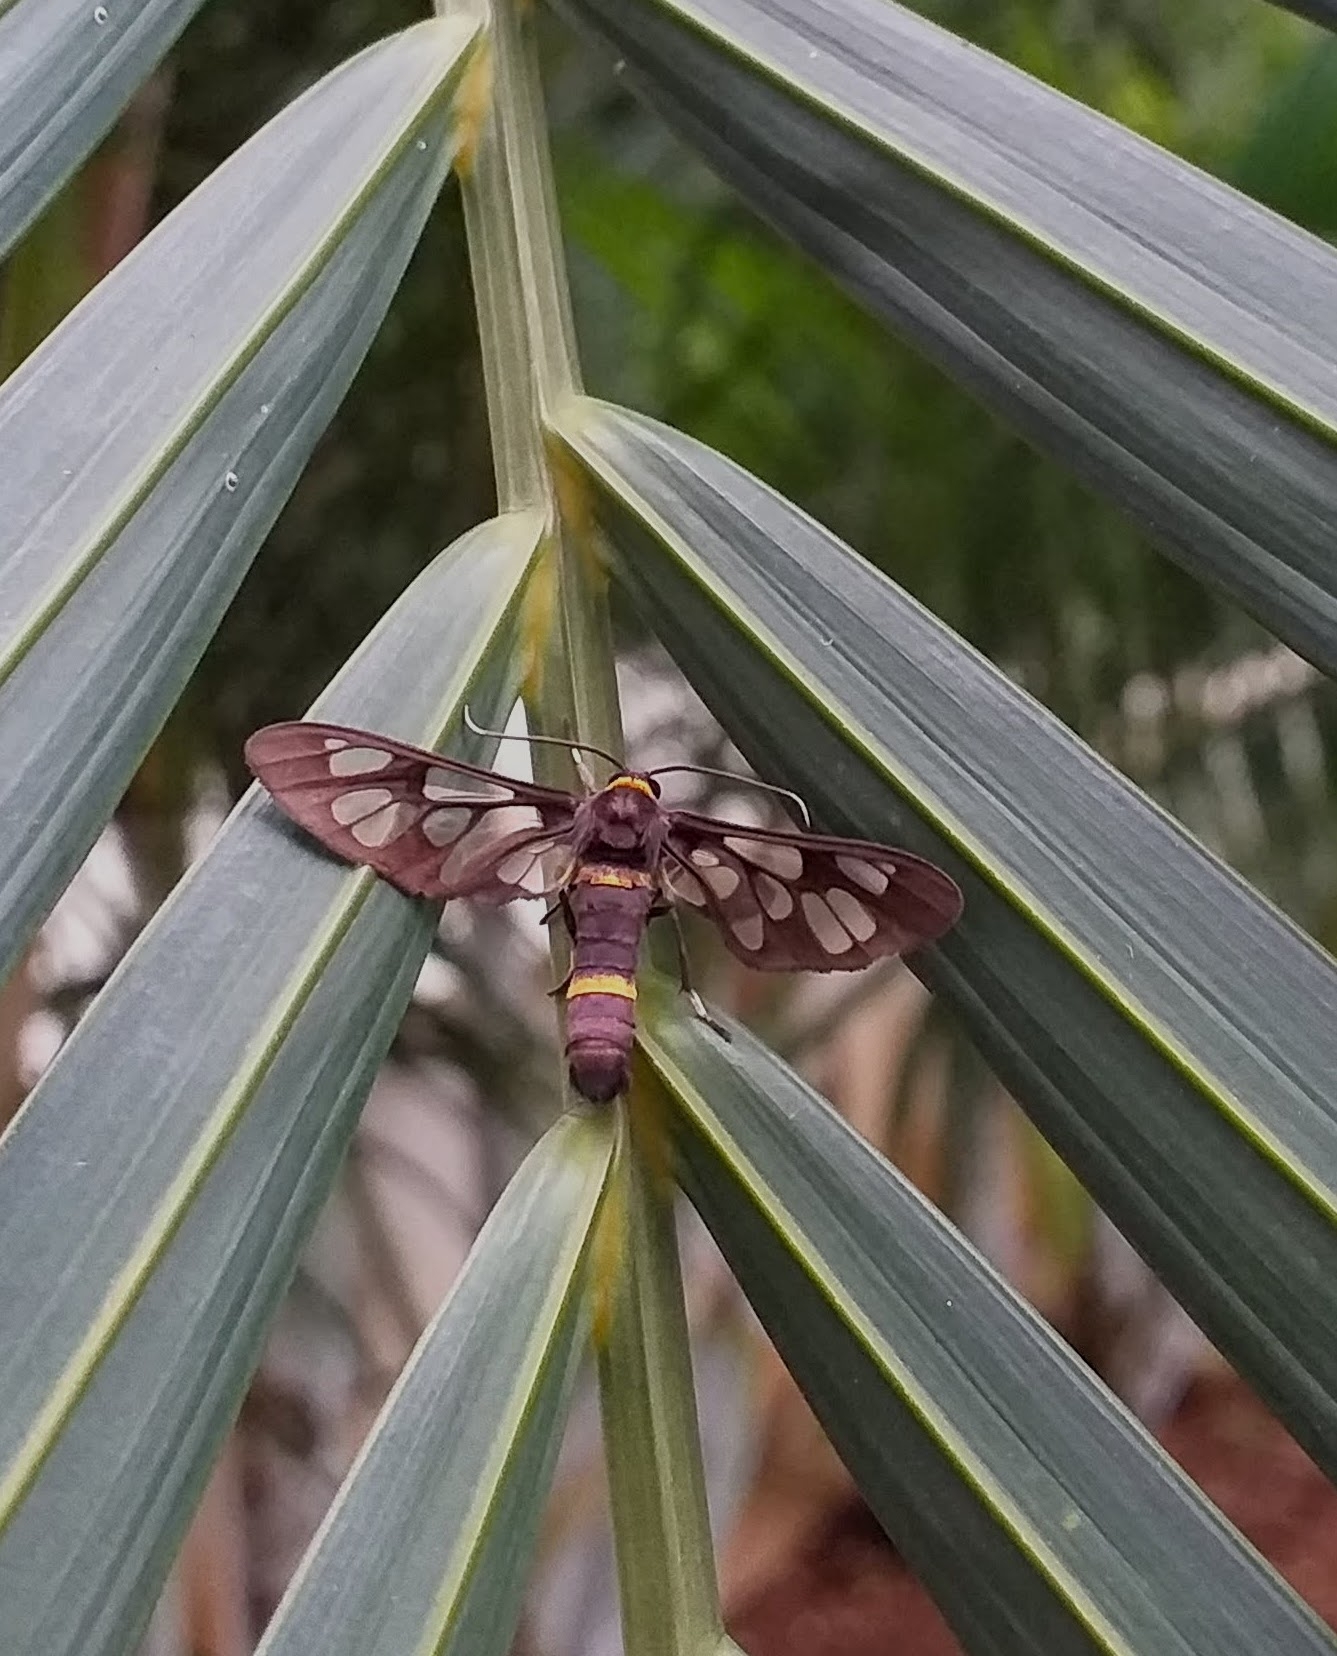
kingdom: Animalia
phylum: Arthropoda
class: Insecta
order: Lepidoptera
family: Erebidae
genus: Syntomoides
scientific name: Syntomoides imaon
